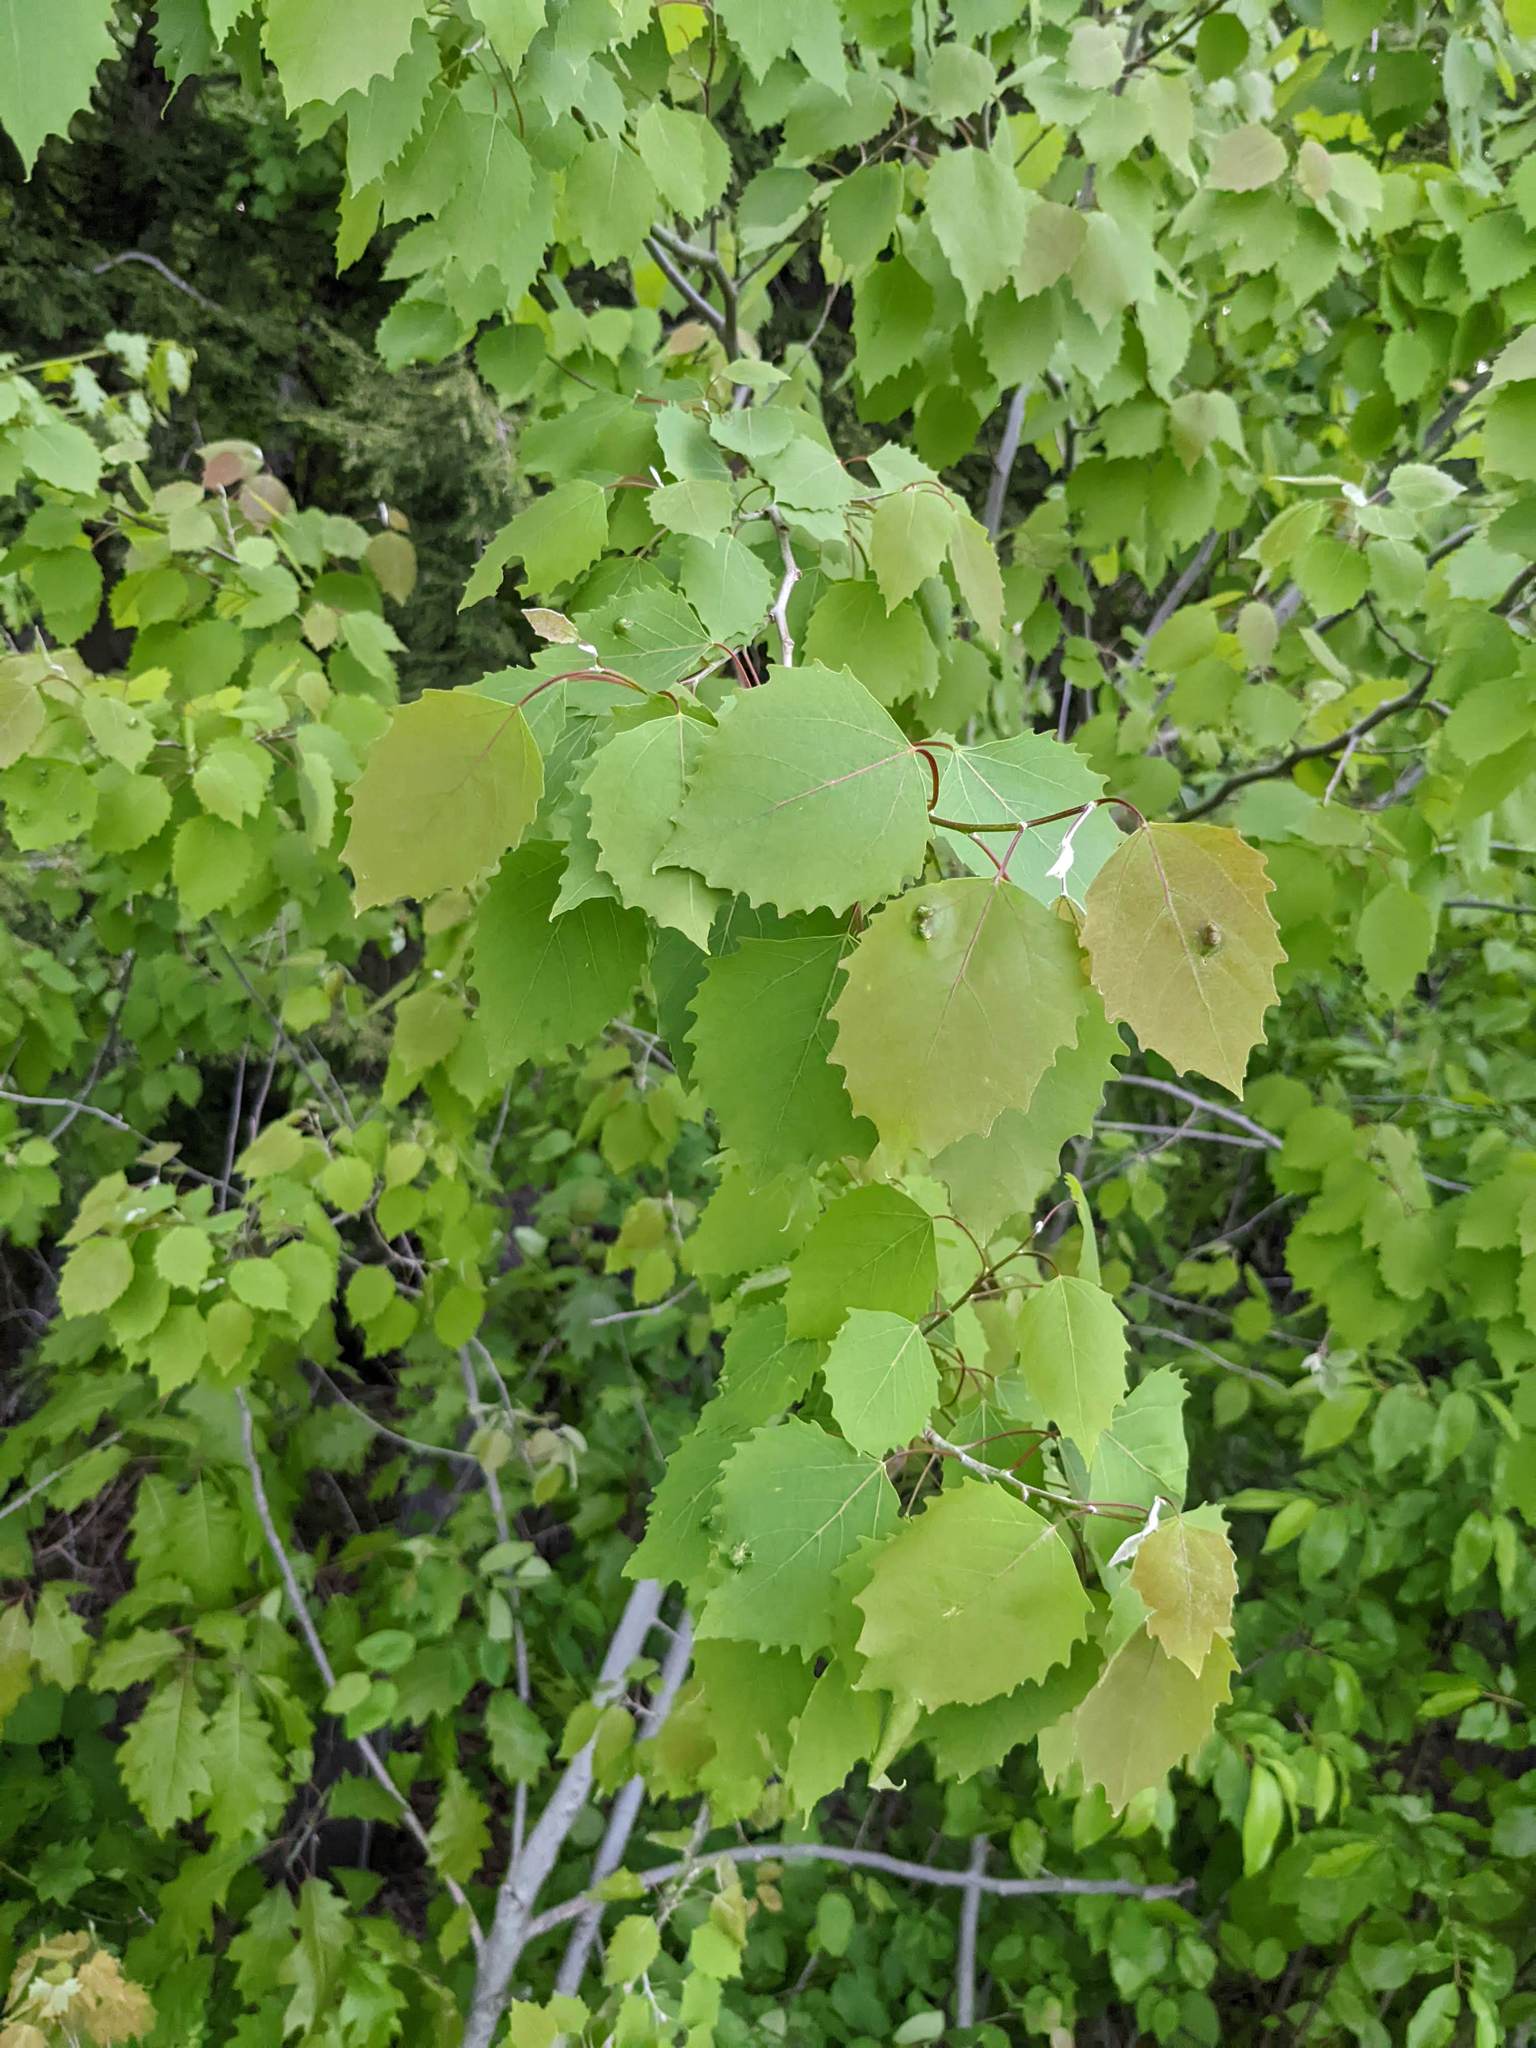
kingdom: Plantae
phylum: Tracheophyta
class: Magnoliopsida
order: Malpighiales
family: Salicaceae
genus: Populus
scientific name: Populus grandidentata
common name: Bigtooth aspen
